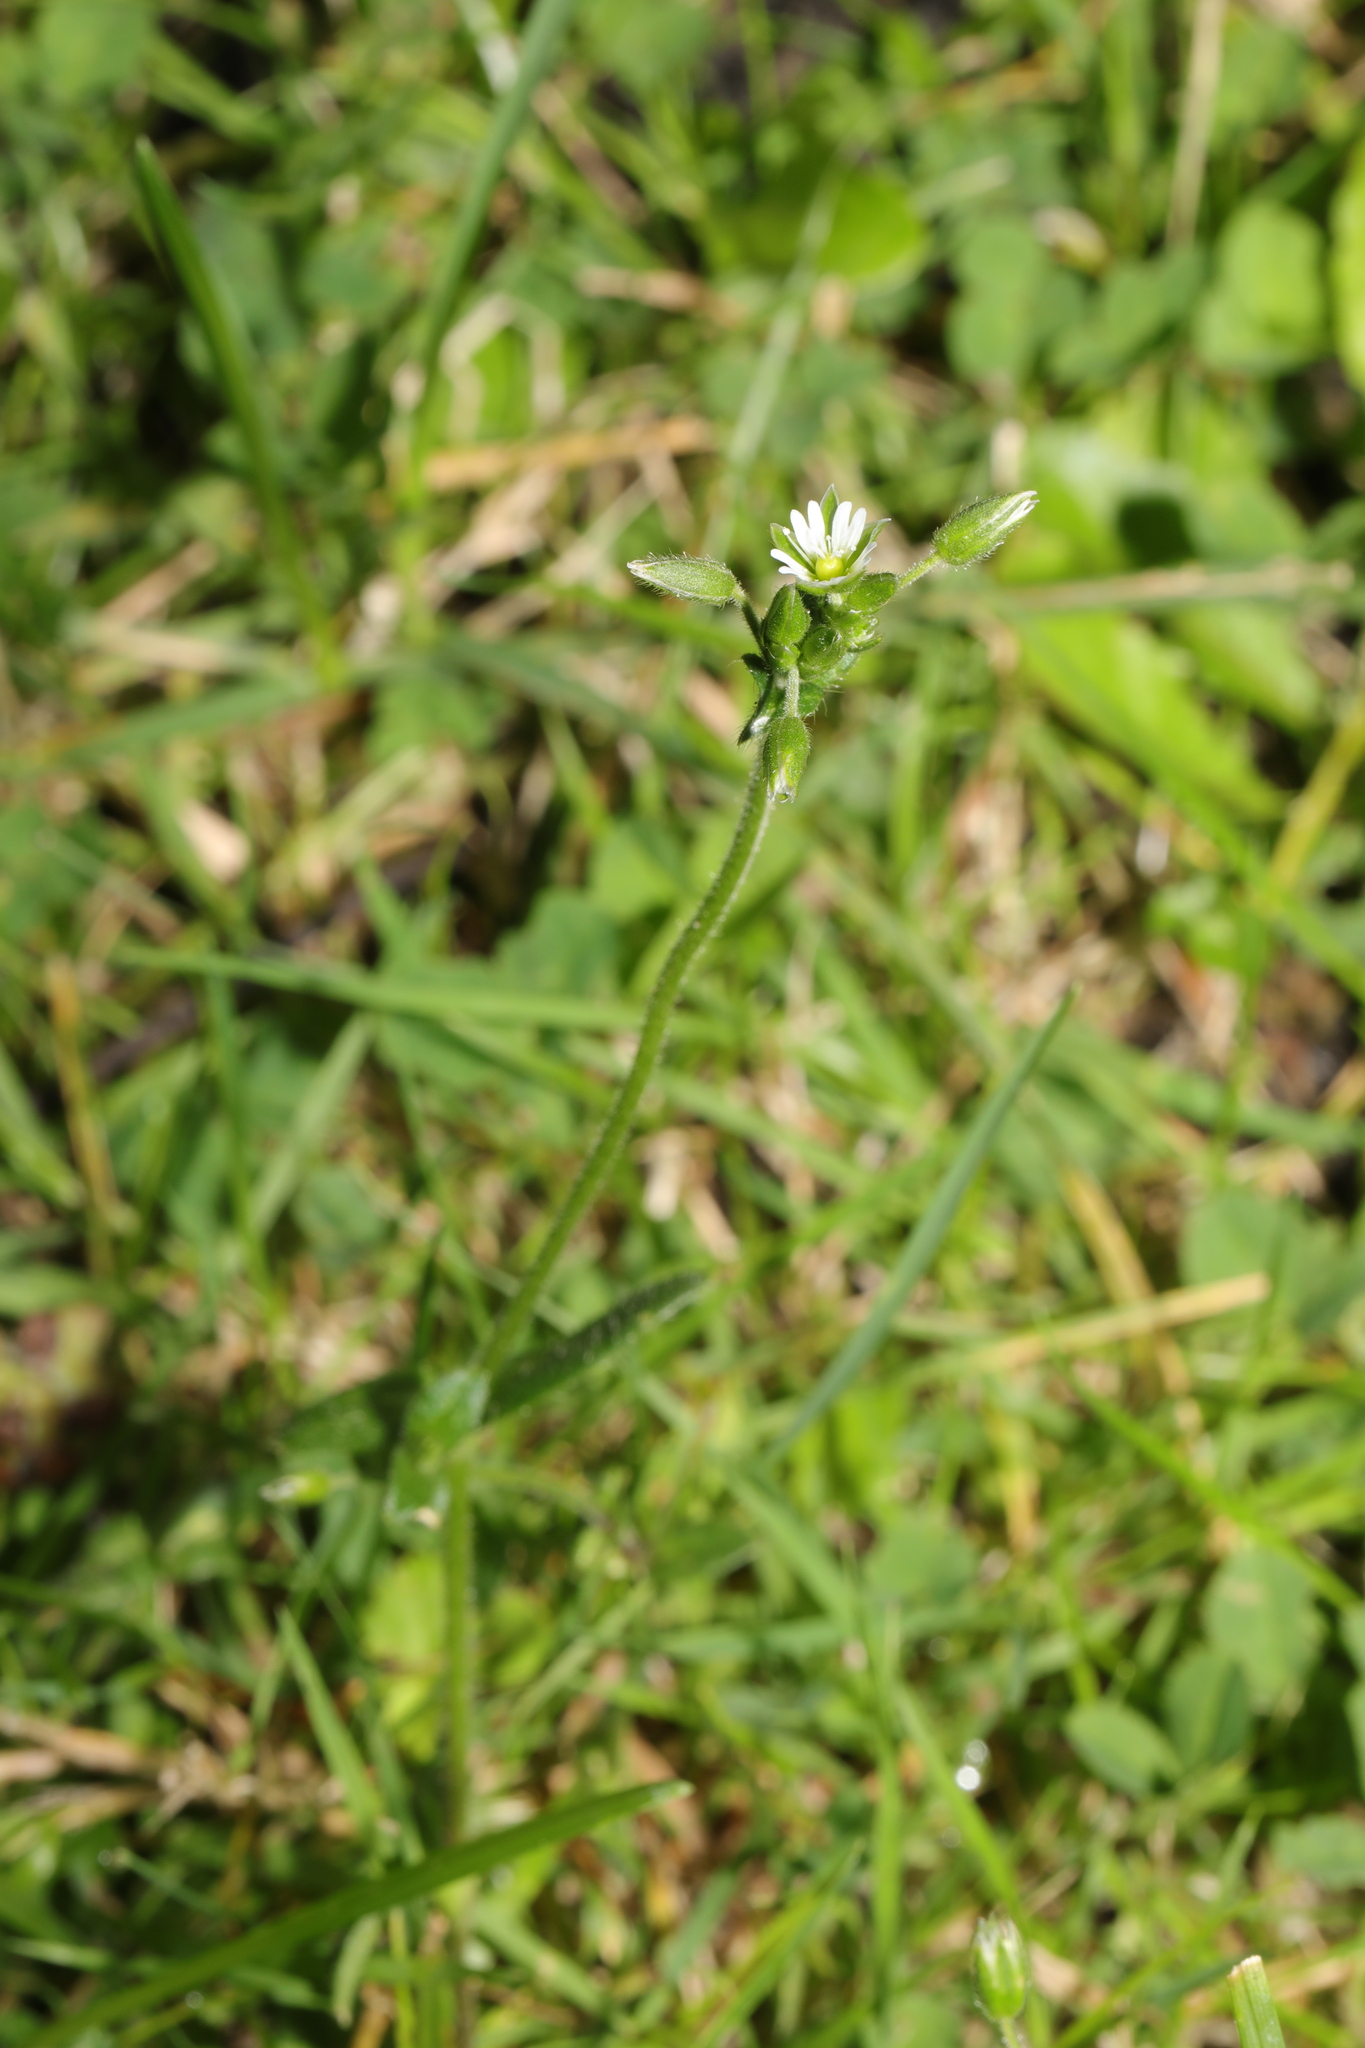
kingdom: Plantae
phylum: Tracheophyta
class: Magnoliopsida
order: Caryophyllales
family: Caryophyllaceae
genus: Cerastium
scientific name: Cerastium fontanum
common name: Common mouse-ear
